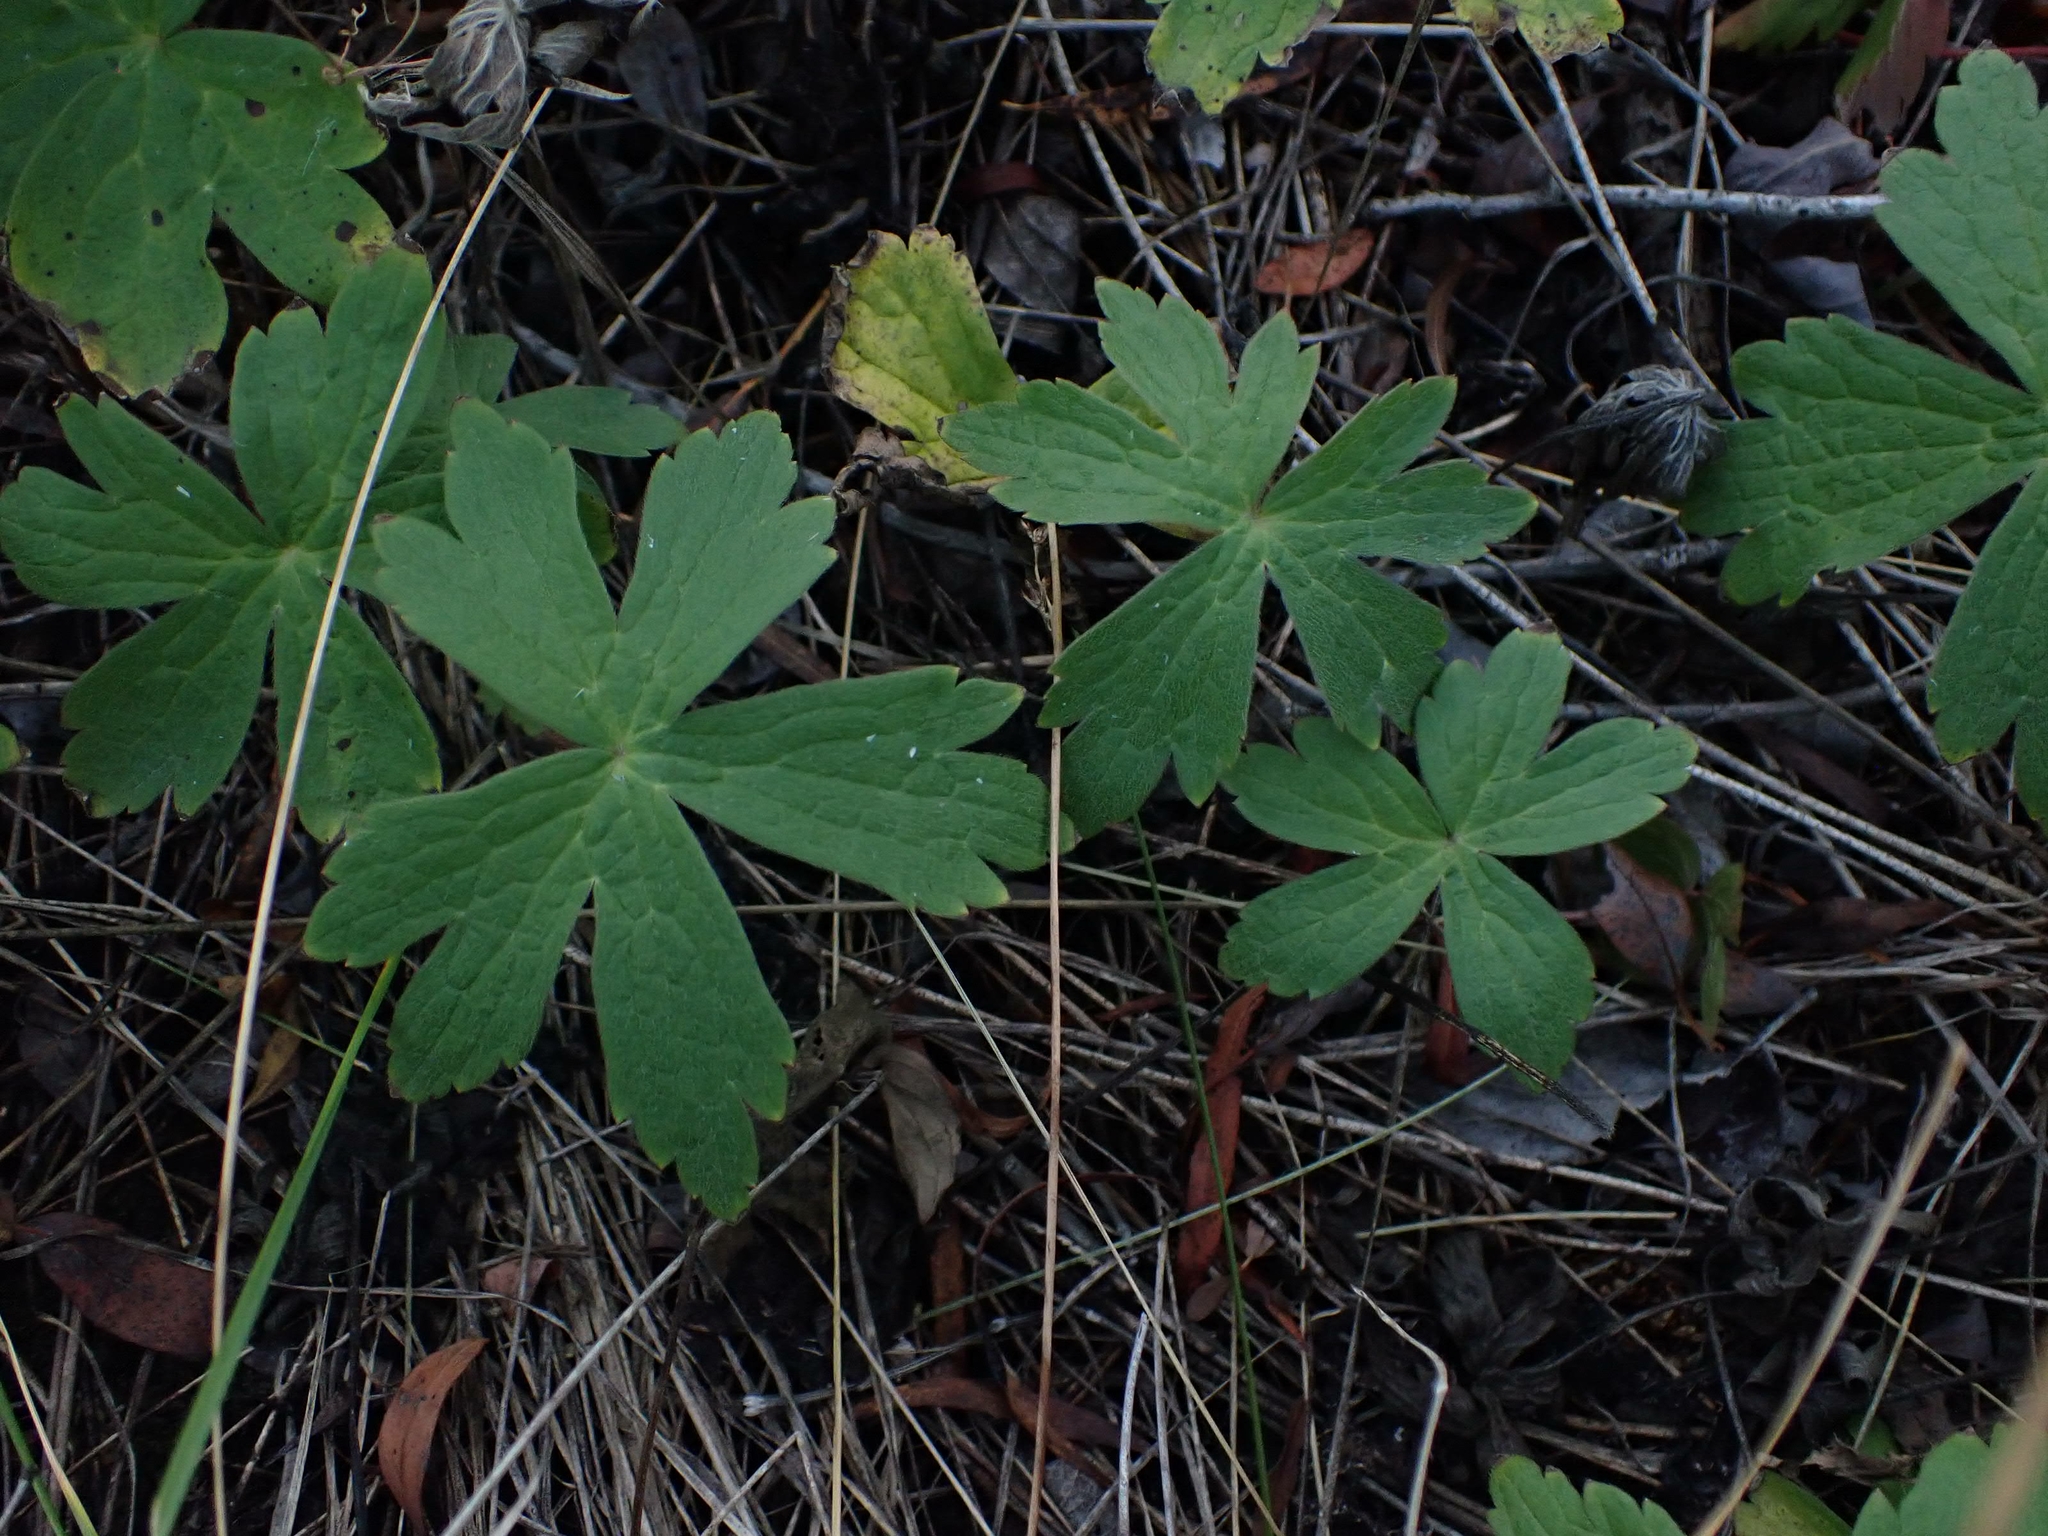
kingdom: Plantae
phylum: Tracheophyta
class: Magnoliopsida
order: Ranunculales
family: Ranunculaceae
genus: Anemonastrum
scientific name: Anemonastrum canadense
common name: Canada anemone
